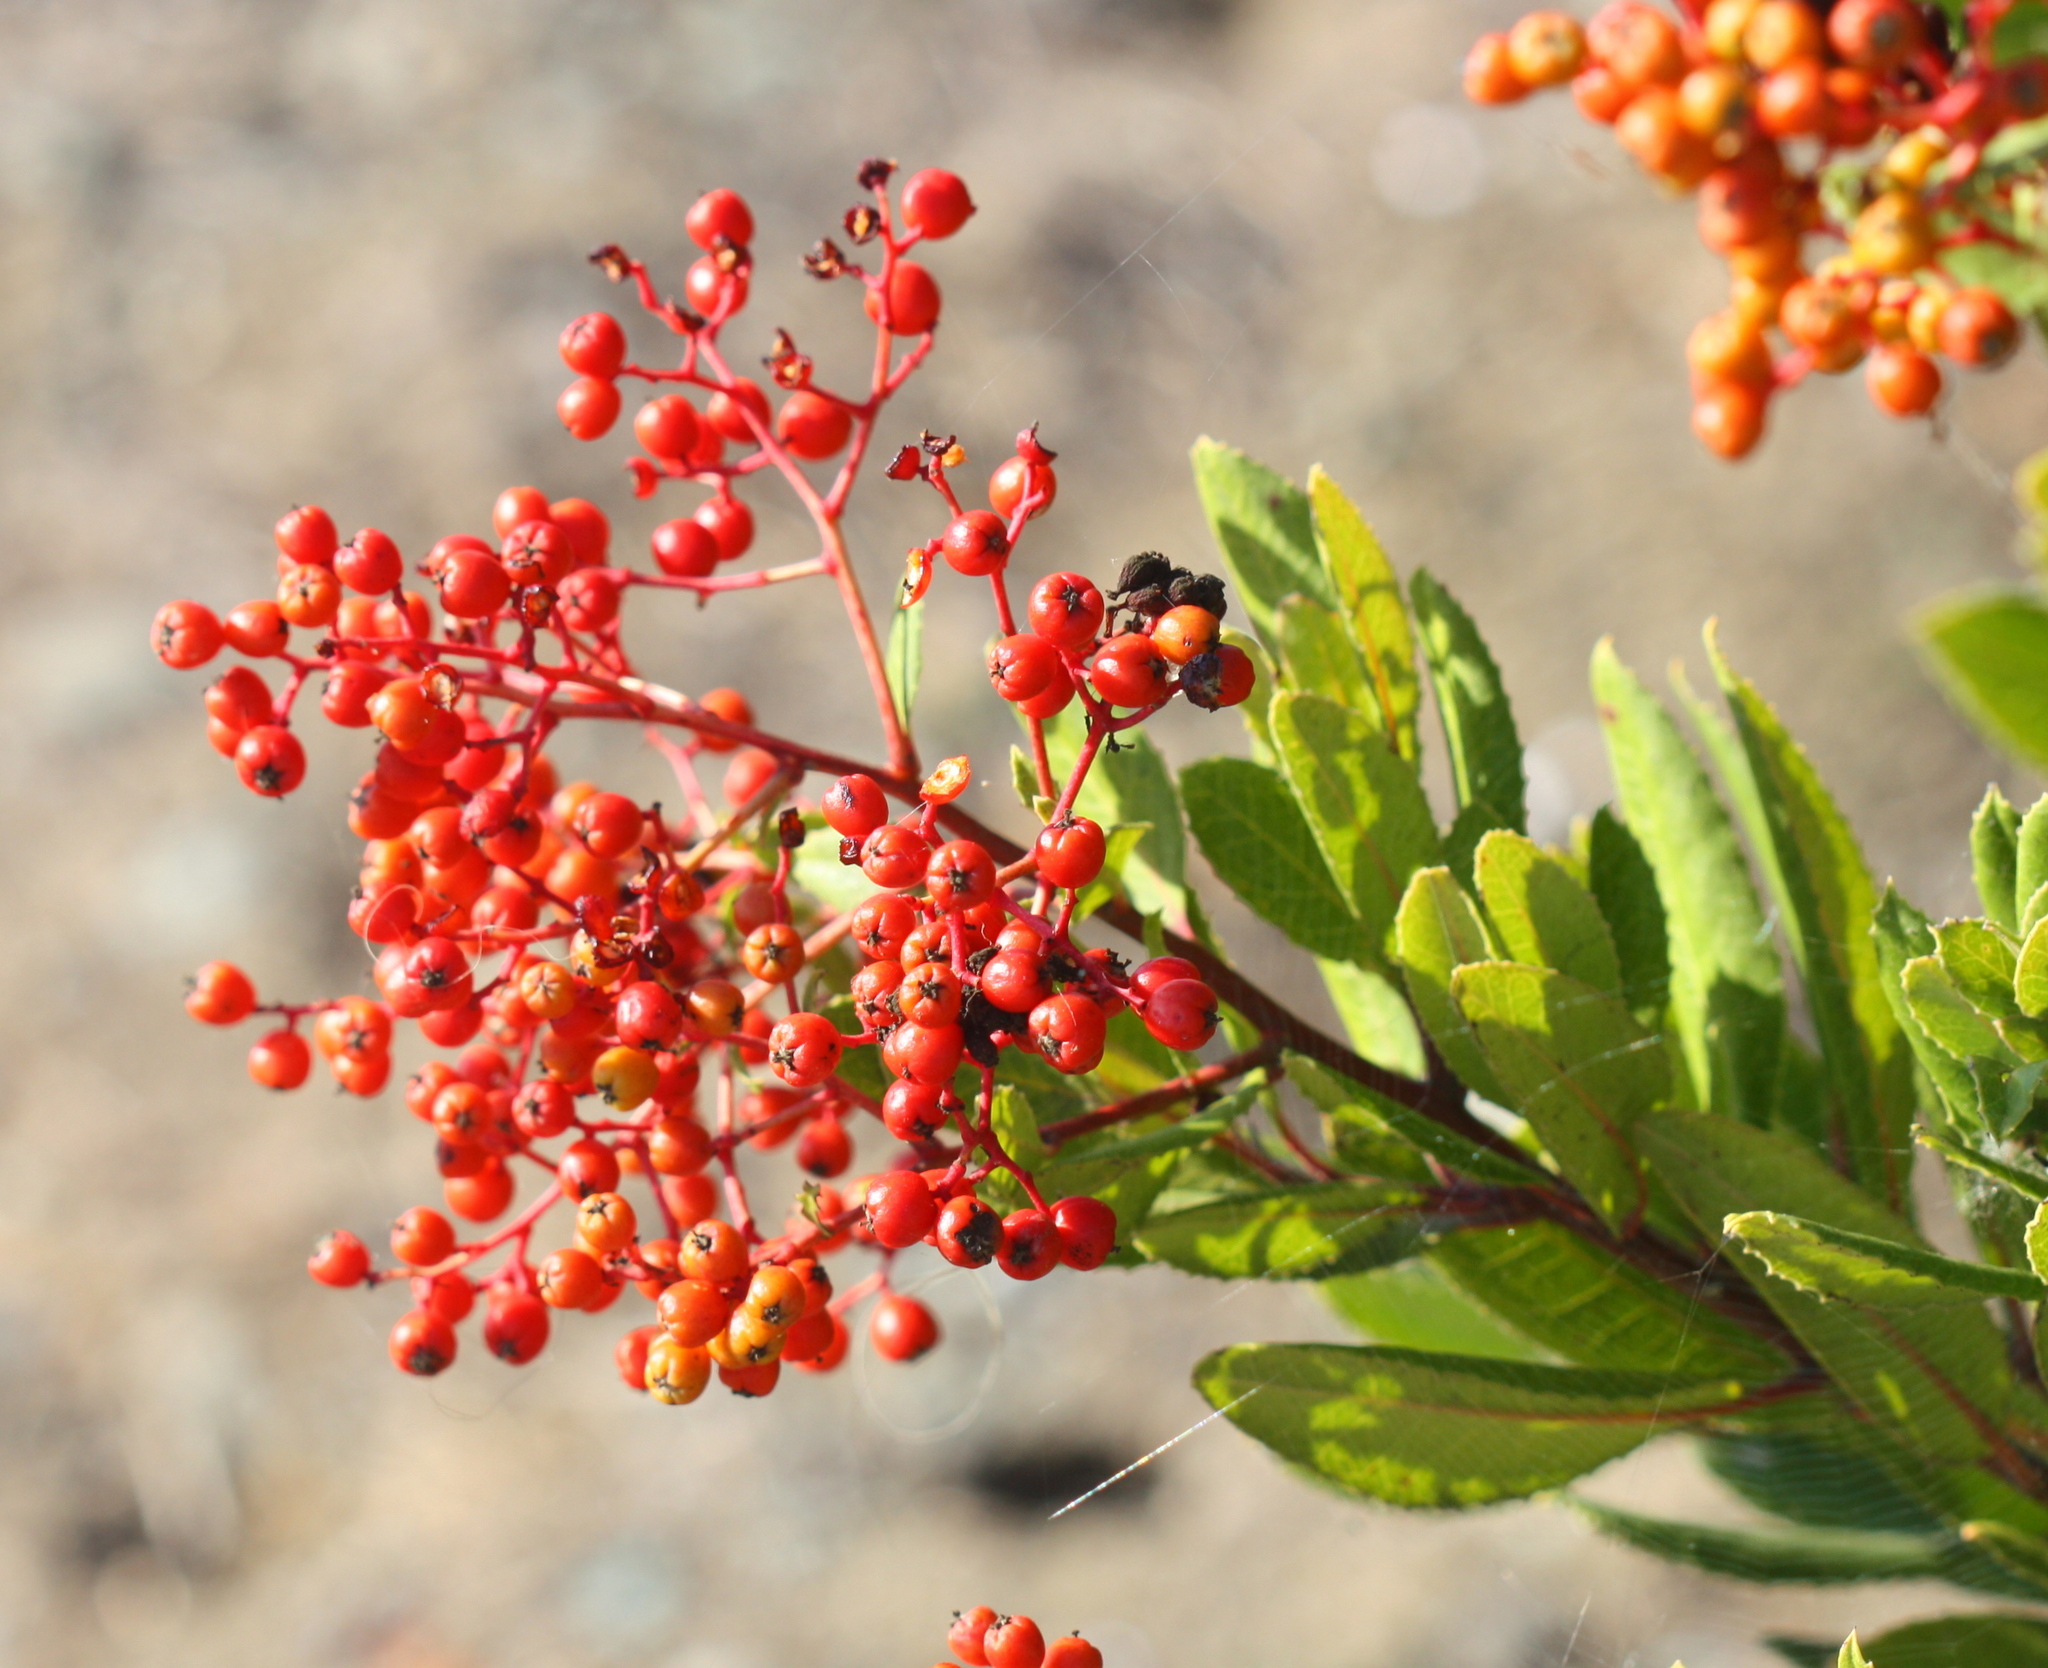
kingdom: Plantae
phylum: Tracheophyta
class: Magnoliopsida
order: Rosales
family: Rosaceae
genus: Heteromeles
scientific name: Heteromeles arbutifolia
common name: California-holly
